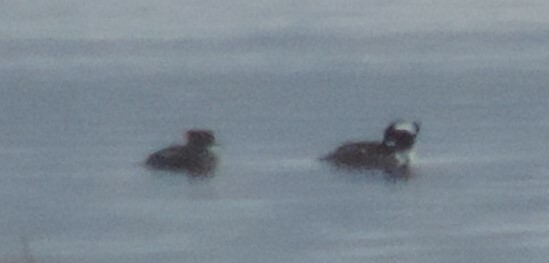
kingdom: Animalia
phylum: Chordata
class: Aves
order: Anseriformes
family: Anatidae
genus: Lophodytes
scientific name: Lophodytes cucullatus
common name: Hooded merganser
